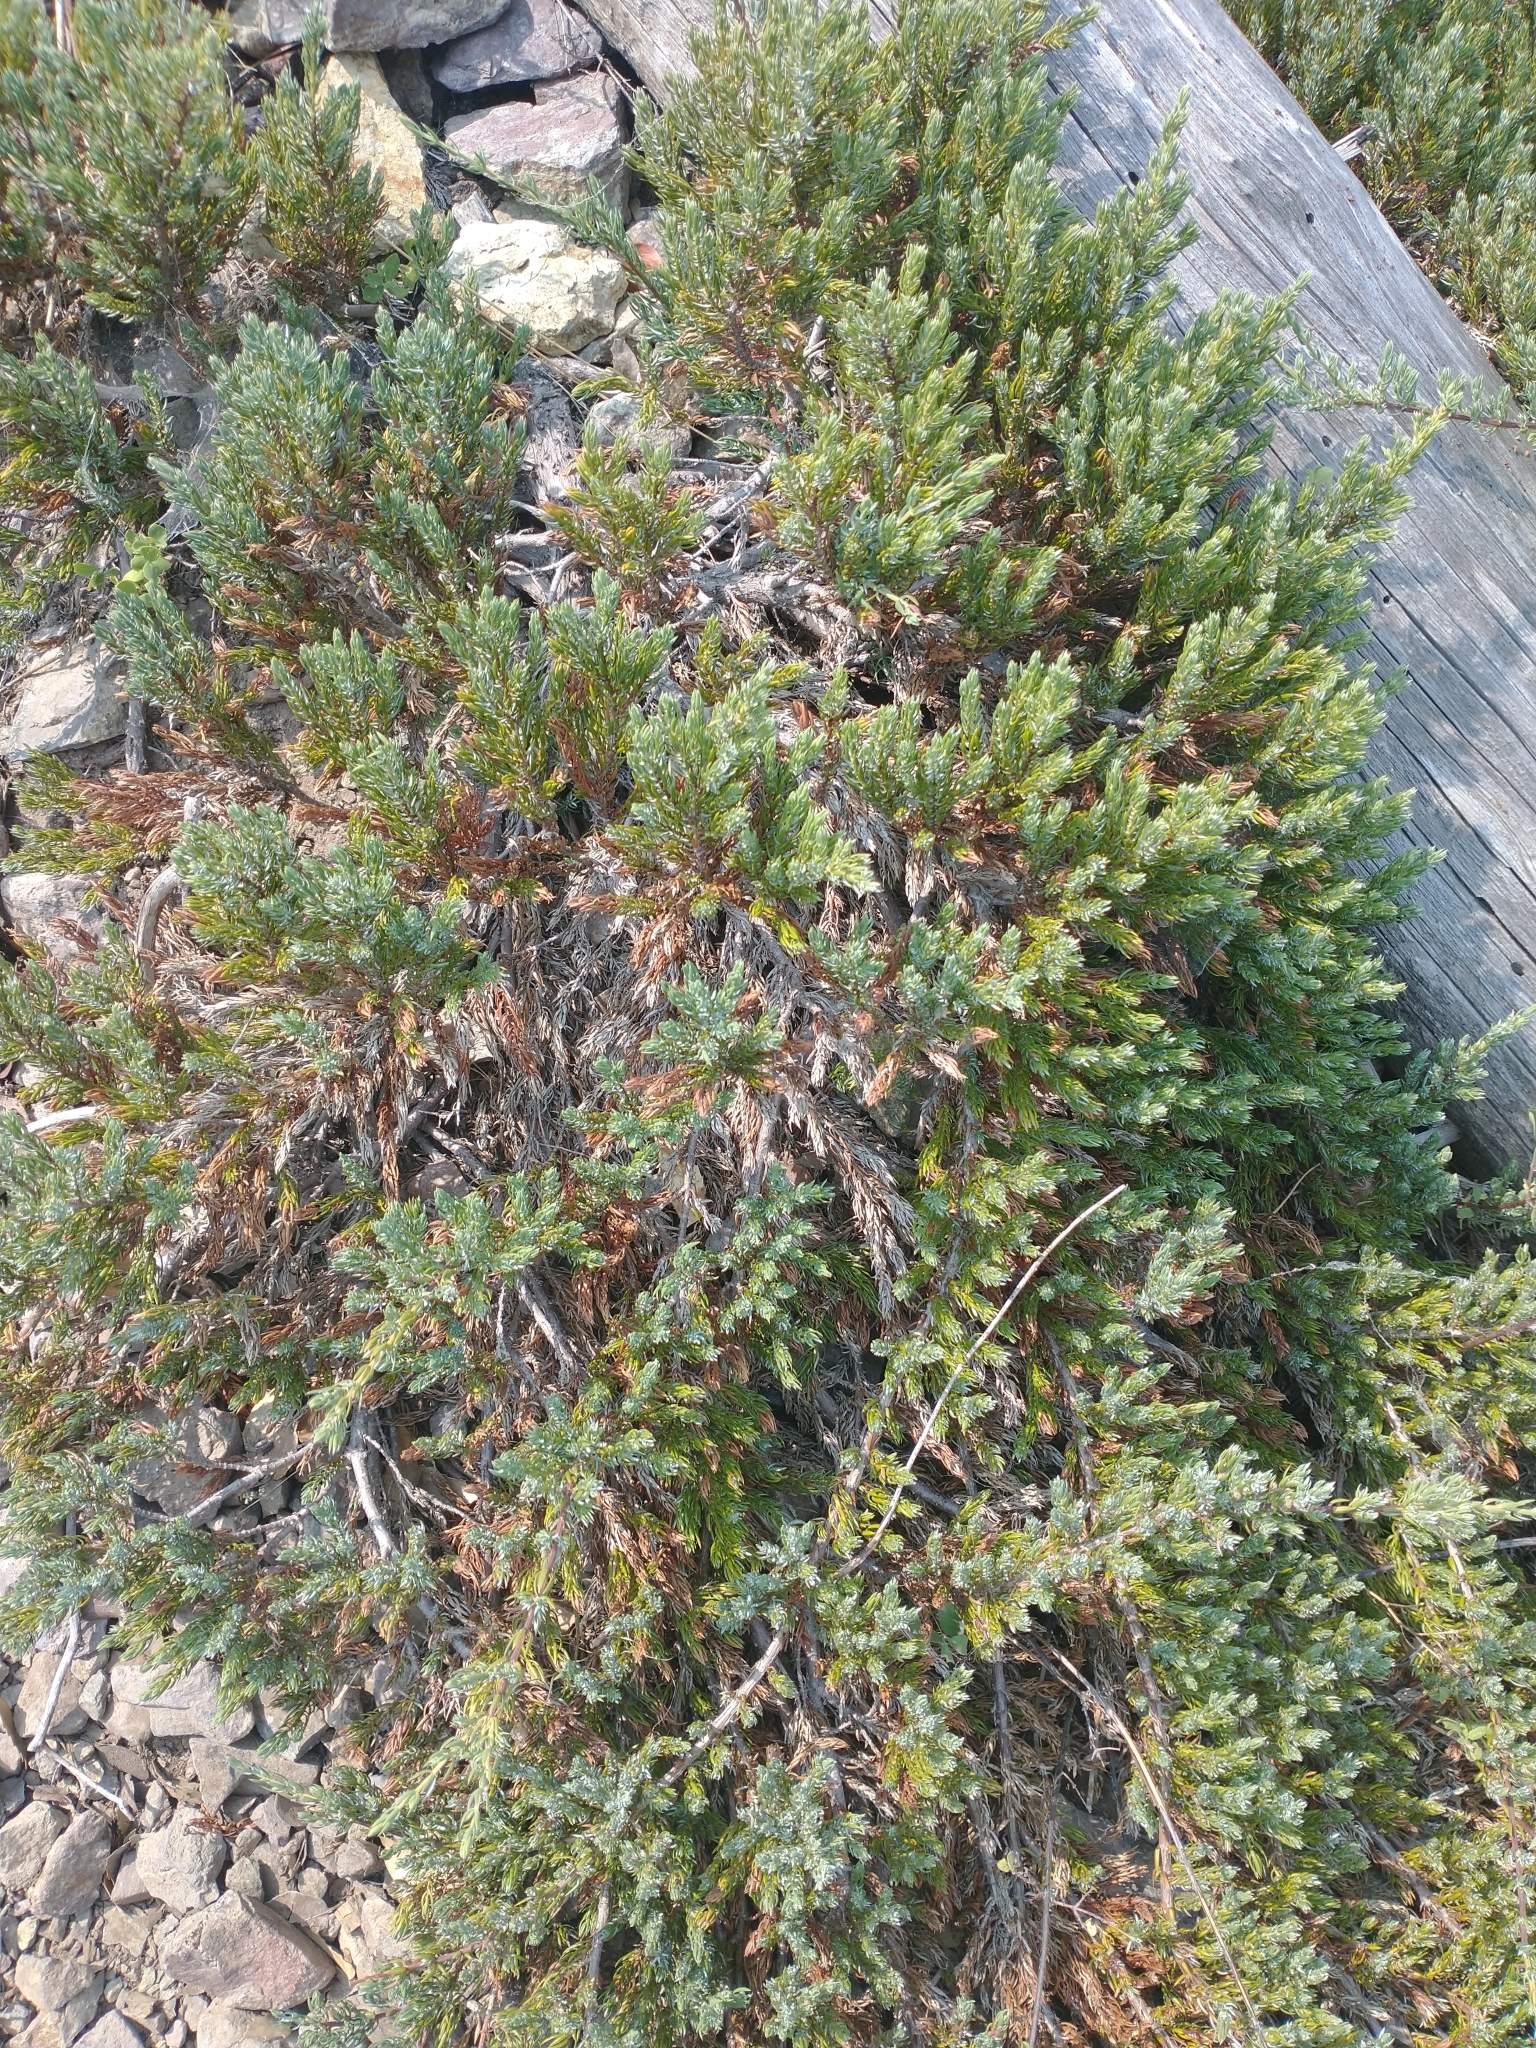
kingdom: Plantae
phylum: Tracheophyta
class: Pinopsida
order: Pinales
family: Cupressaceae
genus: Juniperus
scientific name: Juniperus communis
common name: Common juniper
